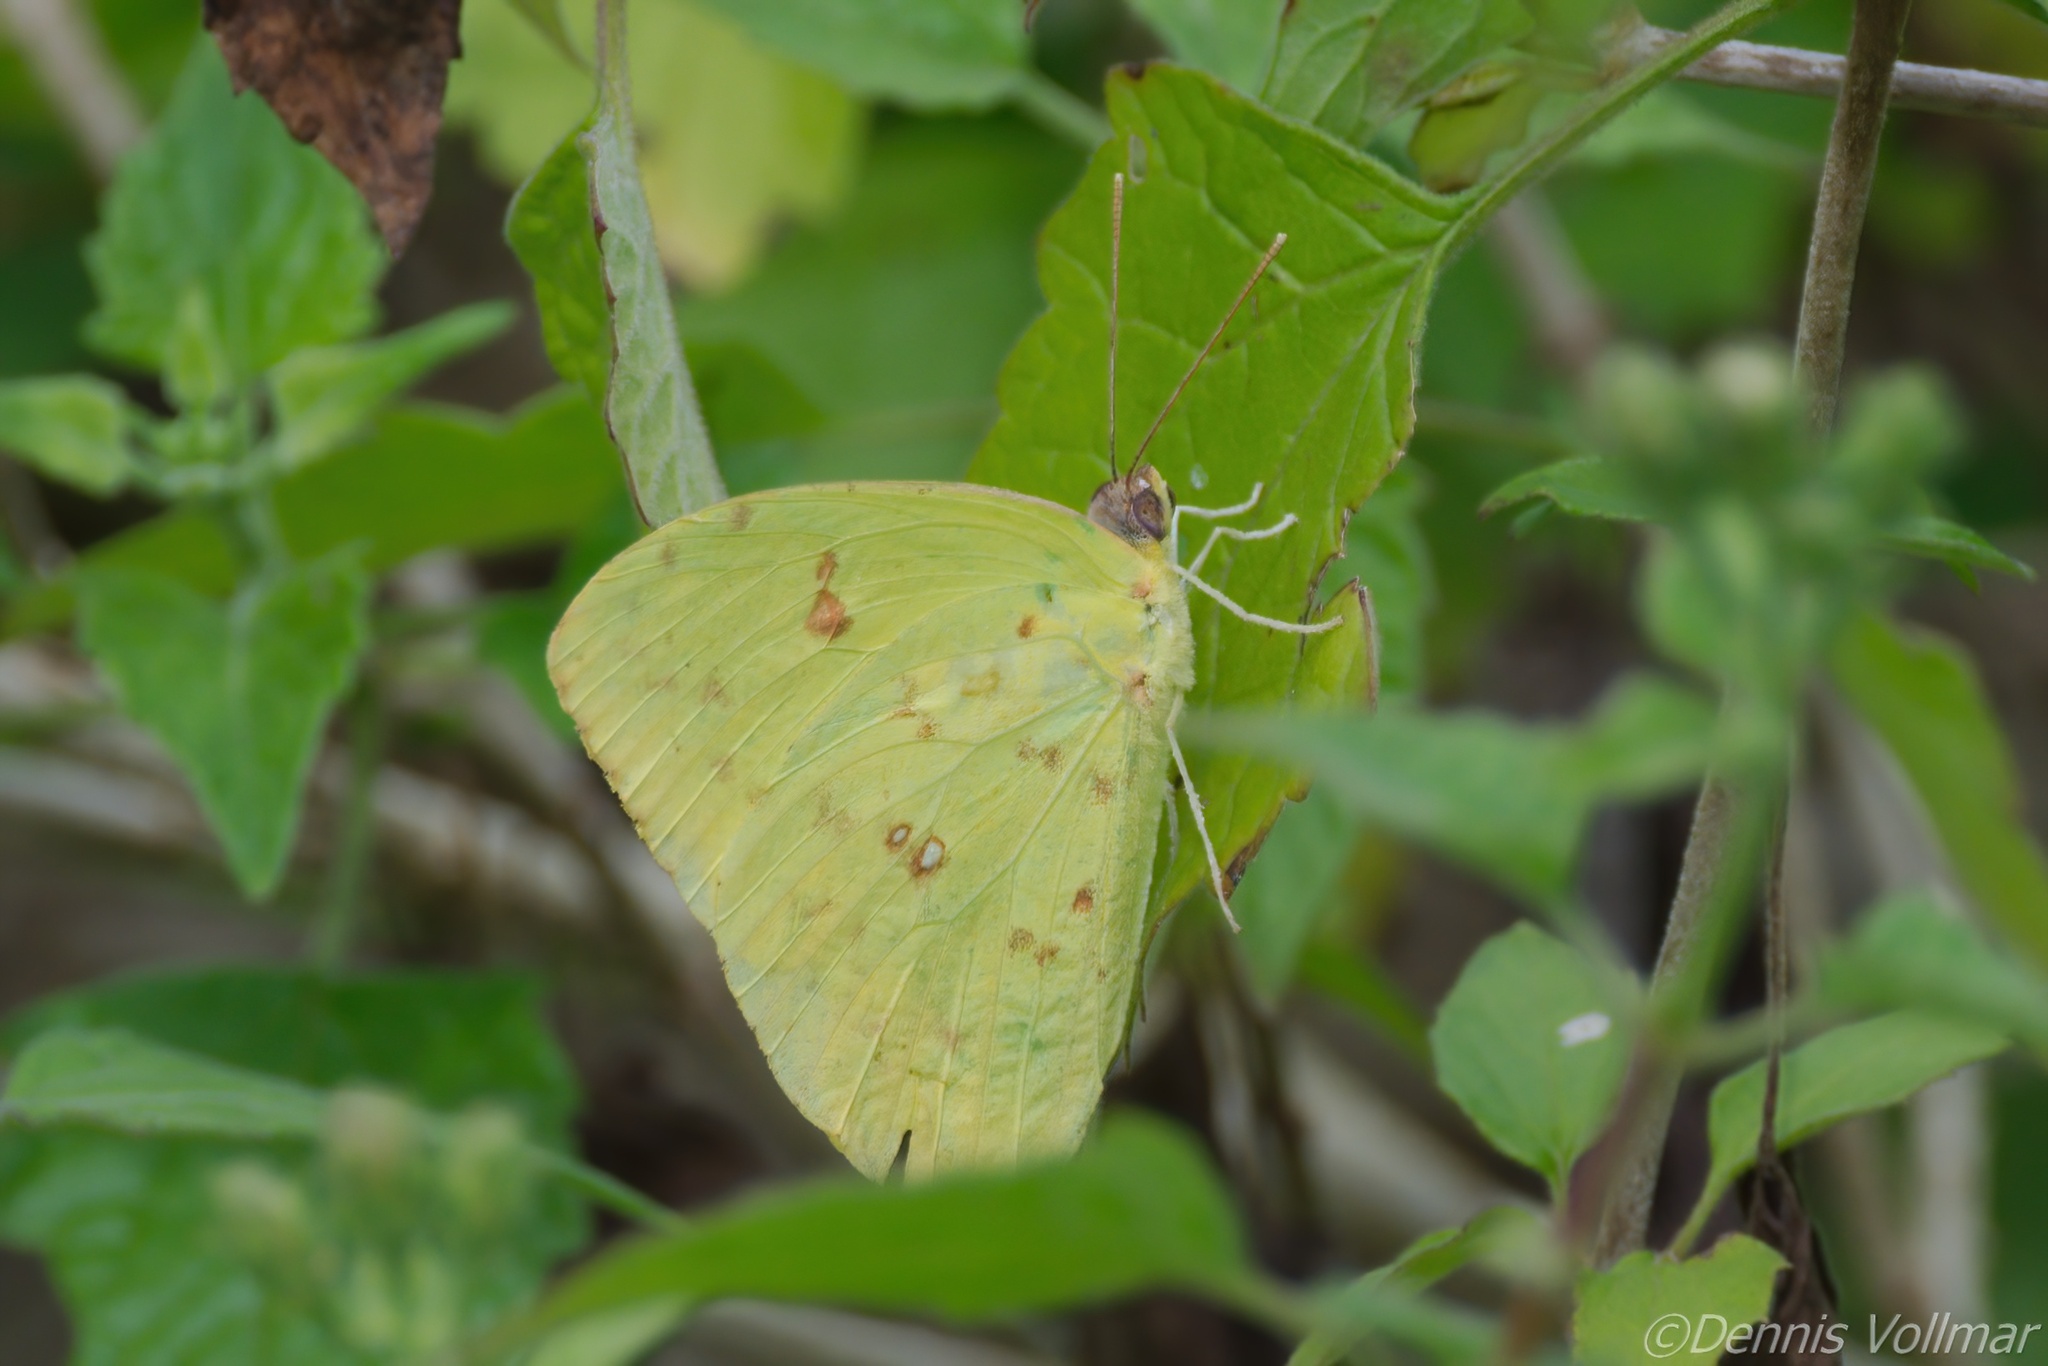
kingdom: Animalia
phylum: Arthropoda
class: Insecta
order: Lepidoptera
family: Pieridae
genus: Phoebis
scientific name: Phoebis sennae
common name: Cloudless sulphur
